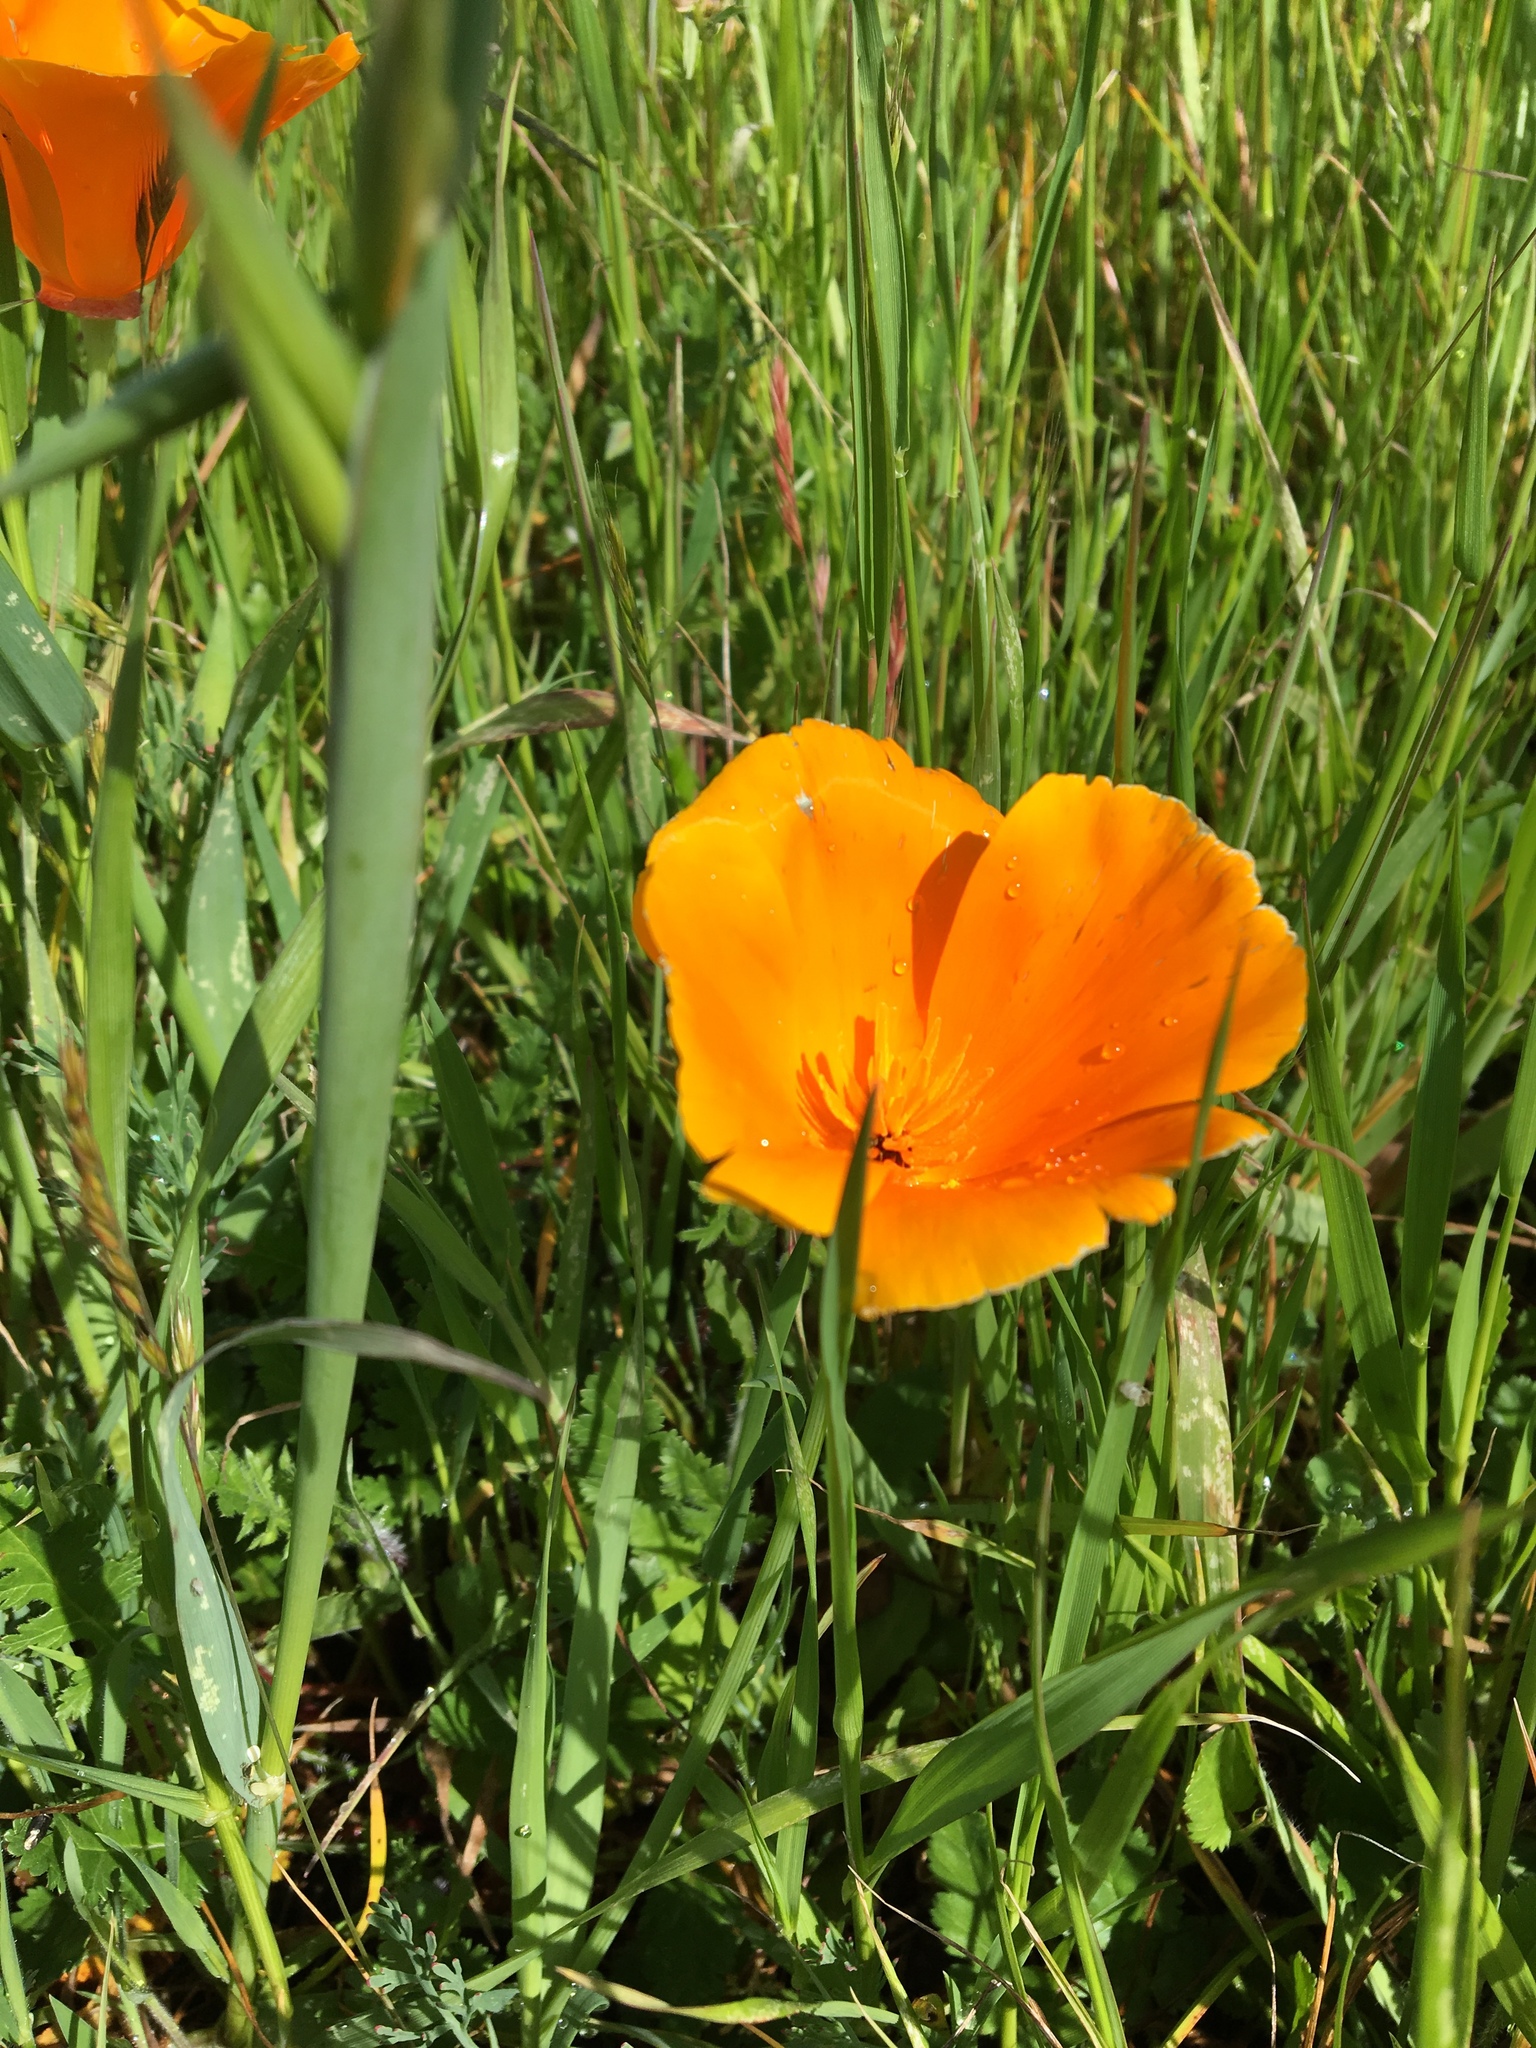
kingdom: Plantae
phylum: Tracheophyta
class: Magnoliopsida
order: Ranunculales
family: Papaveraceae
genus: Eschscholzia
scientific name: Eschscholzia californica
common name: California poppy
